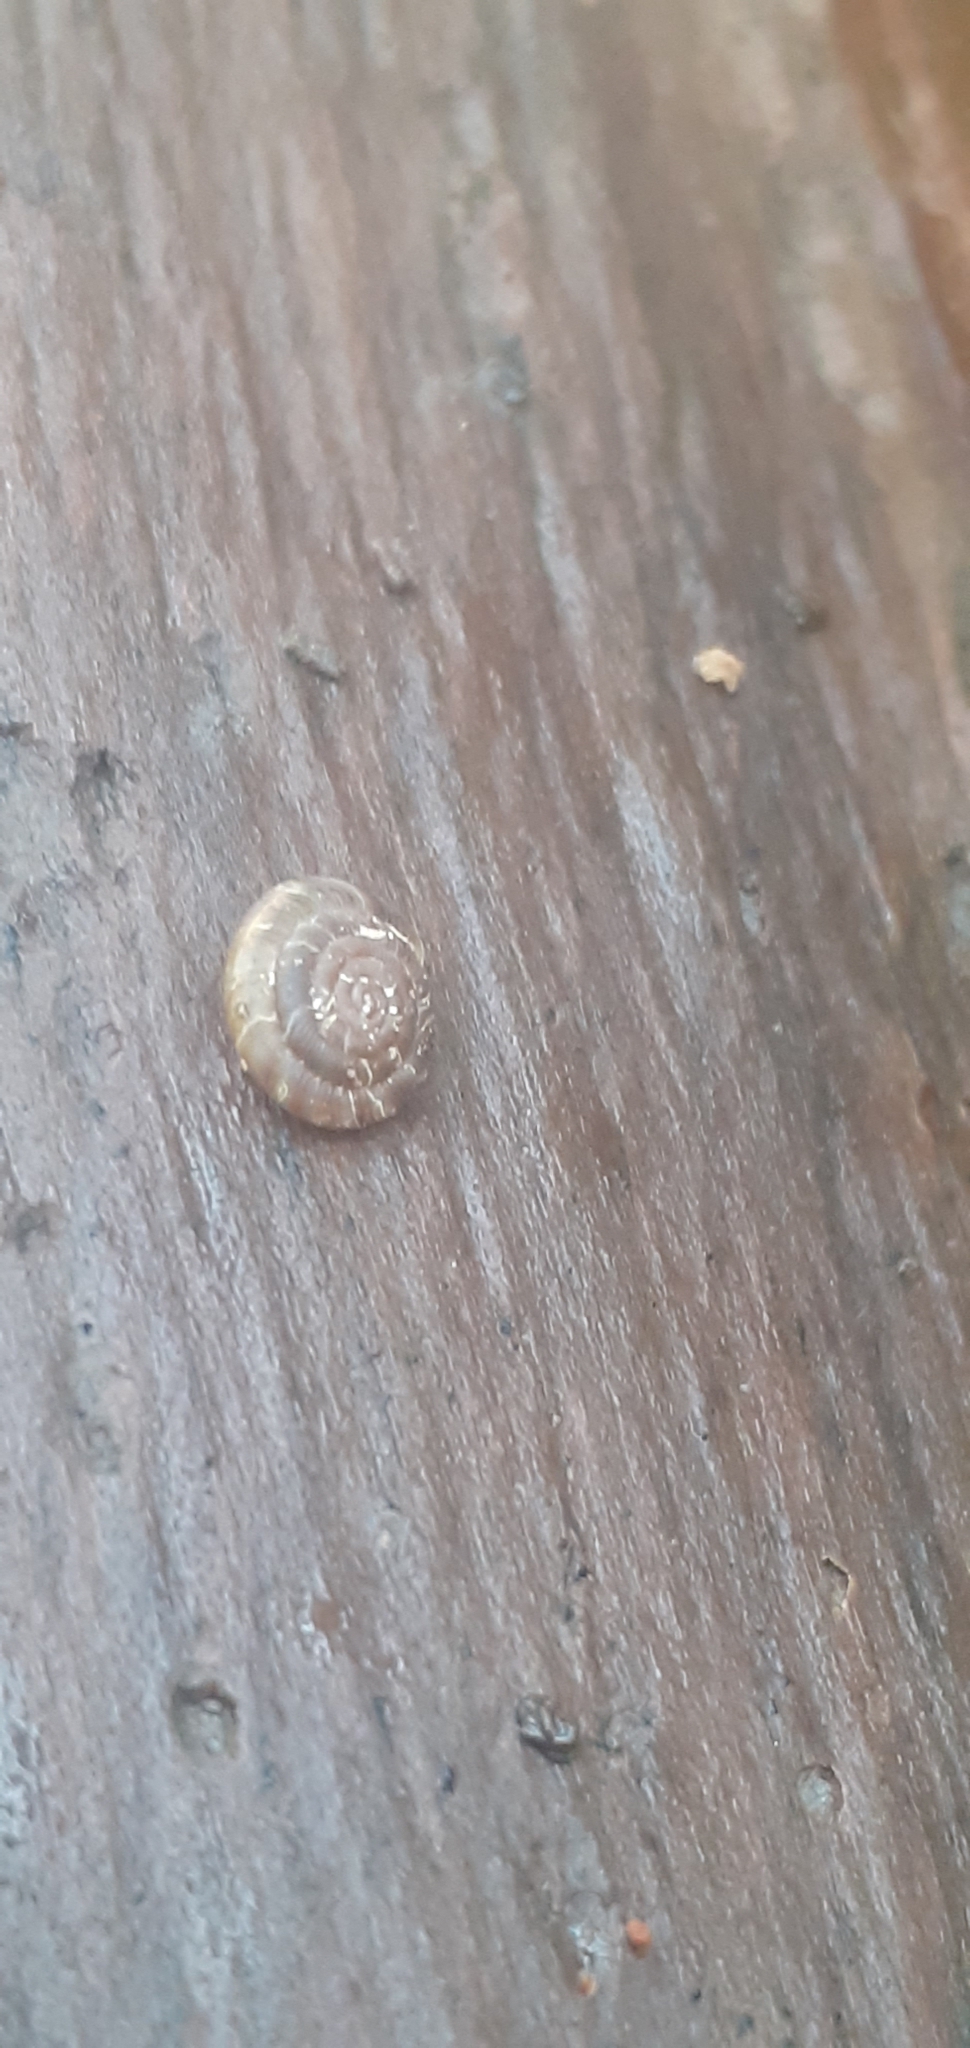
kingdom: Animalia
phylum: Mollusca
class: Gastropoda
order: Stylommatophora
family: Discidae
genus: Discus
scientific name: Discus rotundatus
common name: Rounded snail
